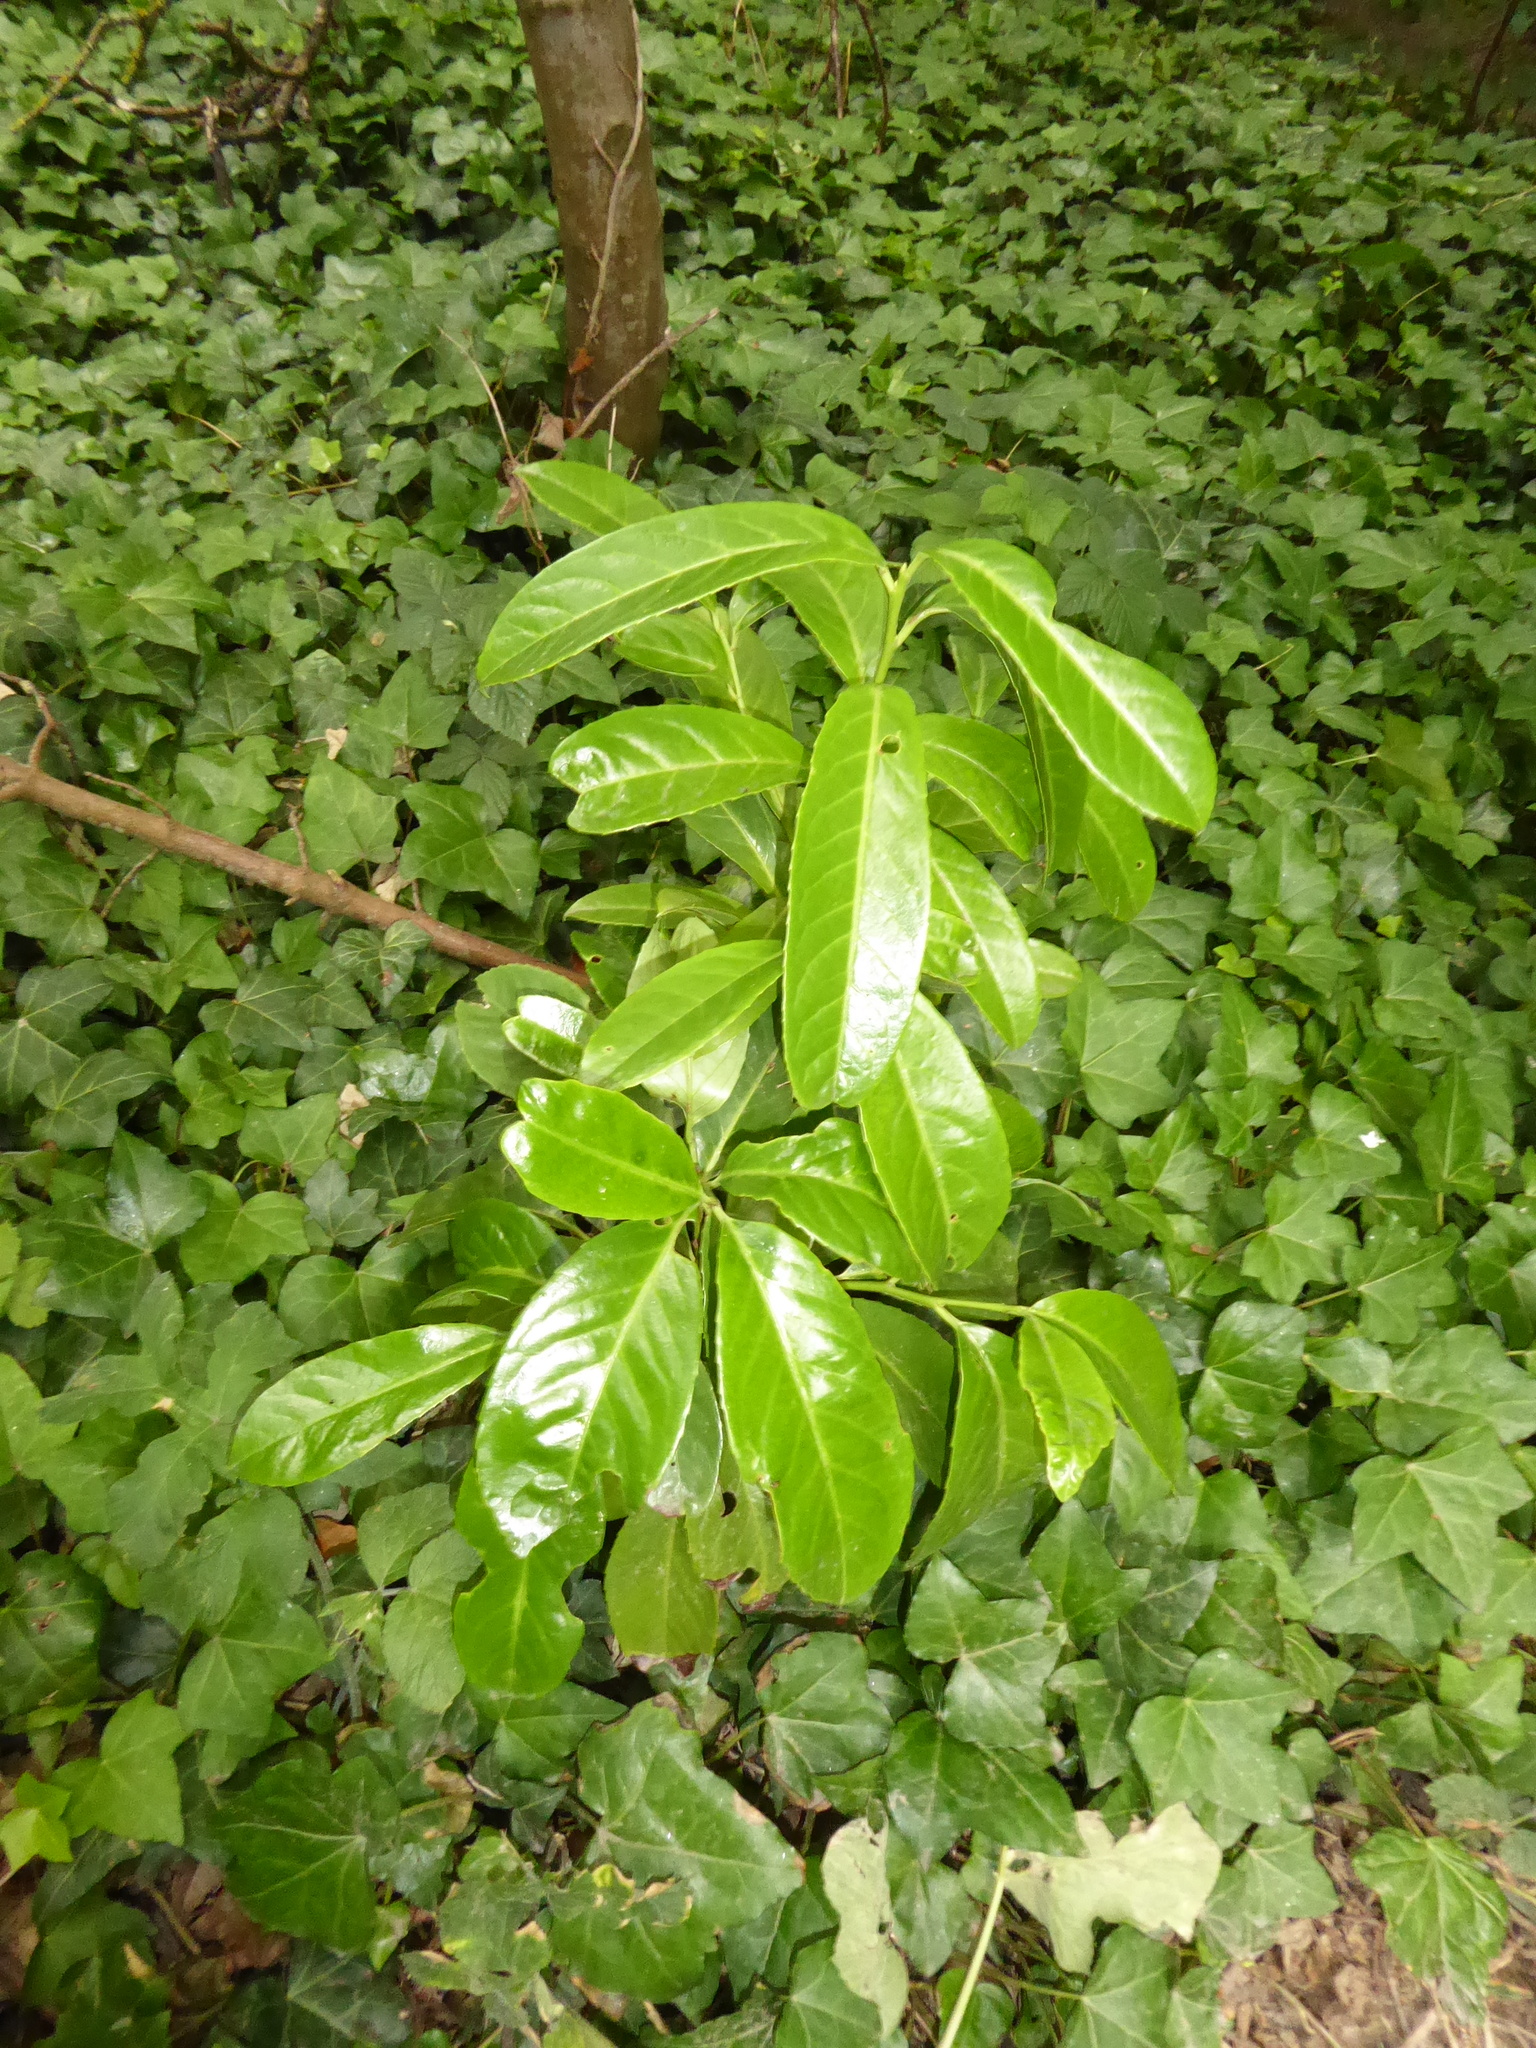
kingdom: Plantae
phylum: Tracheophyta
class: Magnoliopsida
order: Rosales
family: Rosaceae
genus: Prunus
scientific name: Prunus laurocerasus
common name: Cherry laurel
